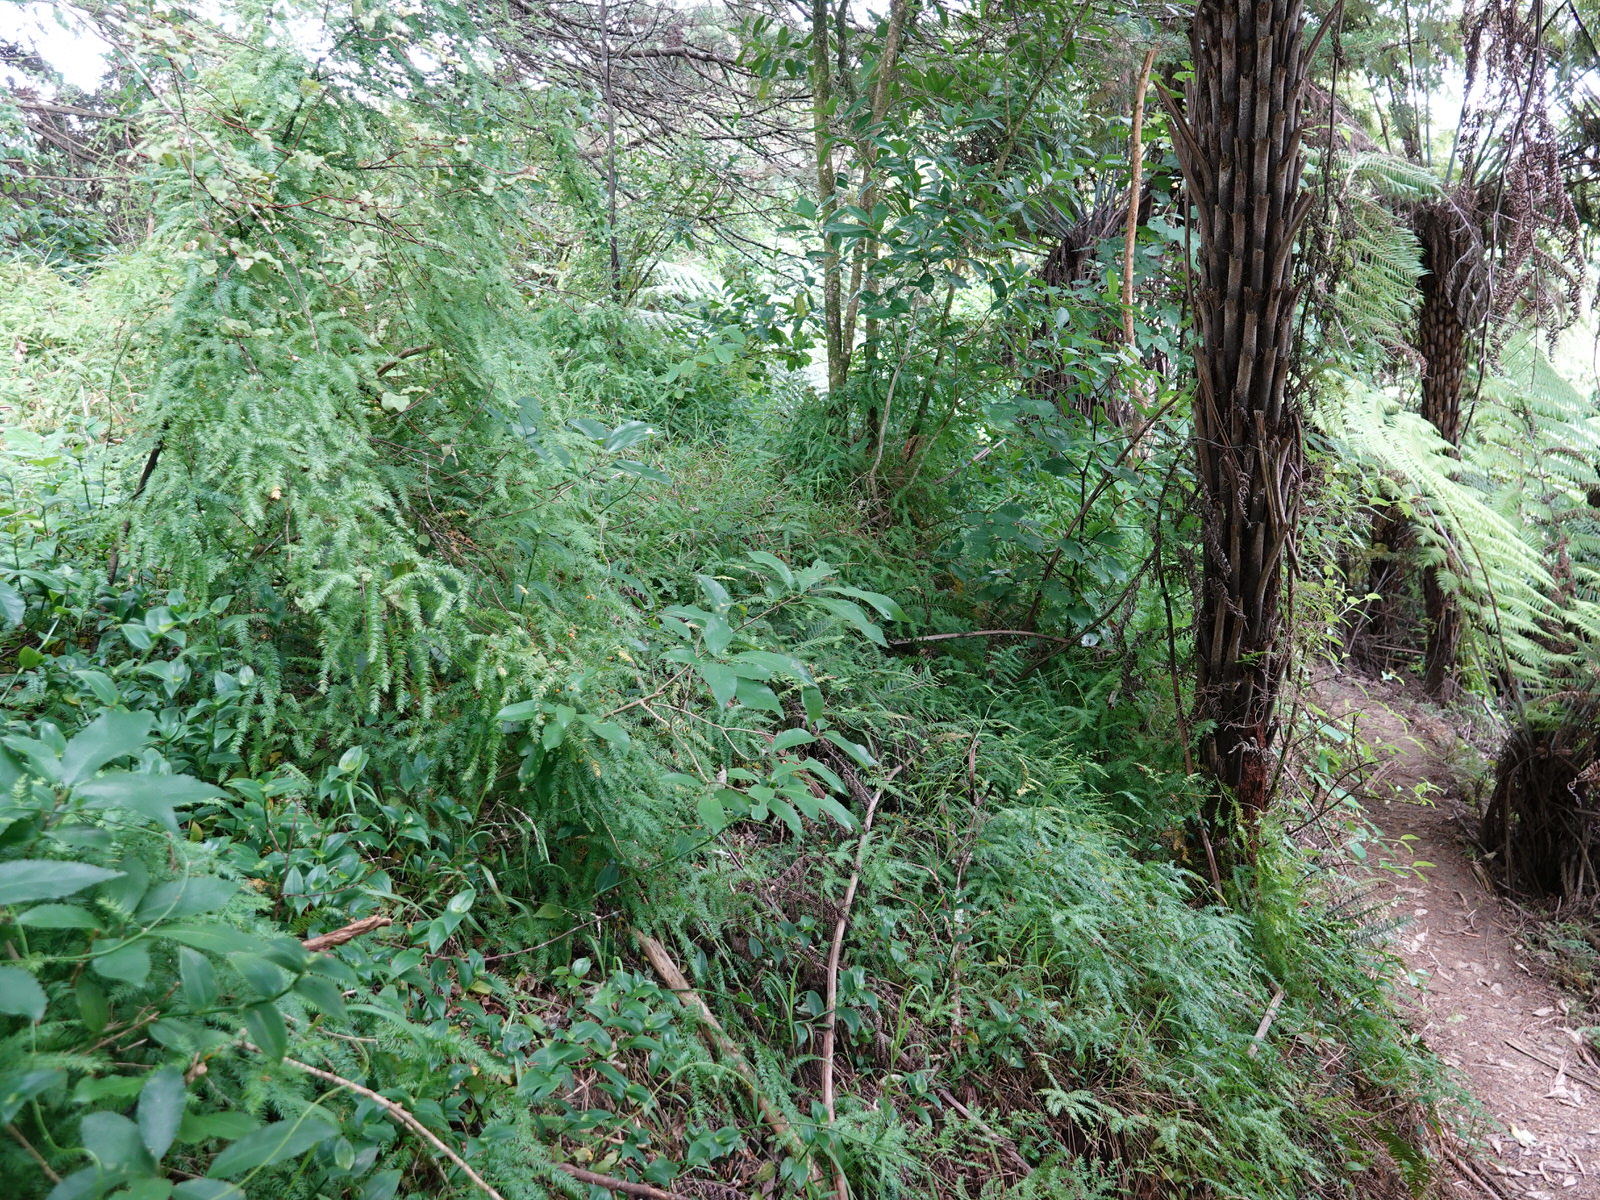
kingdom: Plantae
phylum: Tracheophyta
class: Liliopsida
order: Asparagales
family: Asparagaceae
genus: Asparagus
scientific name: Asparagus scandens
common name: Asparagus-fern
